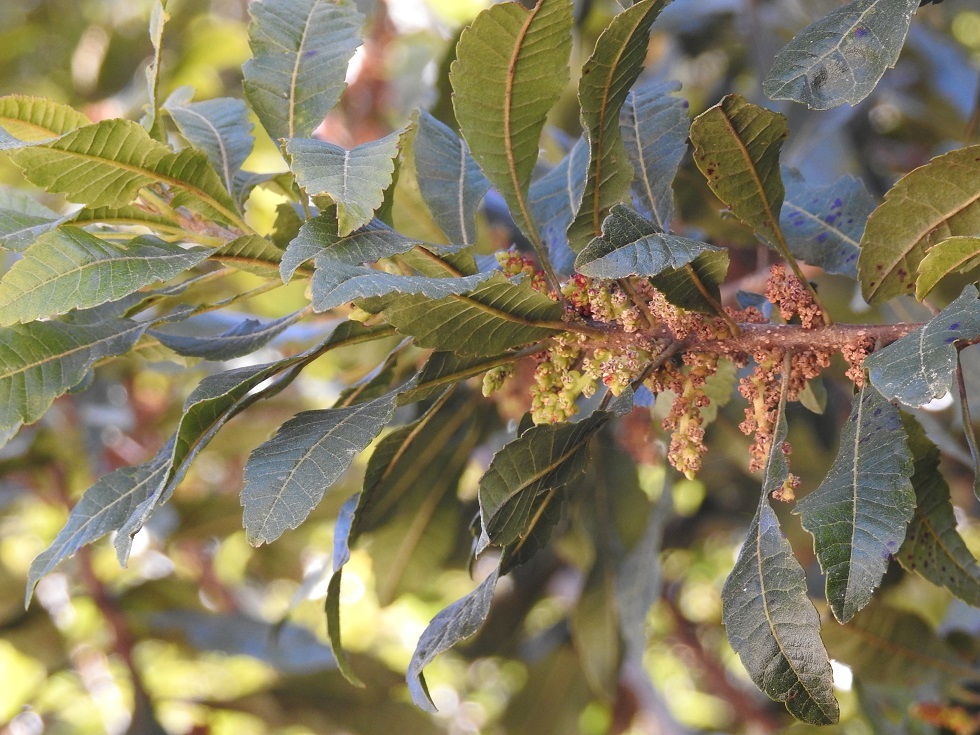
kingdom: Plantae
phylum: Tracheophyta
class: Magnoliopsida
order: Fagales
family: Myricaceae
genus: Morella
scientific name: Morella lindeniana
